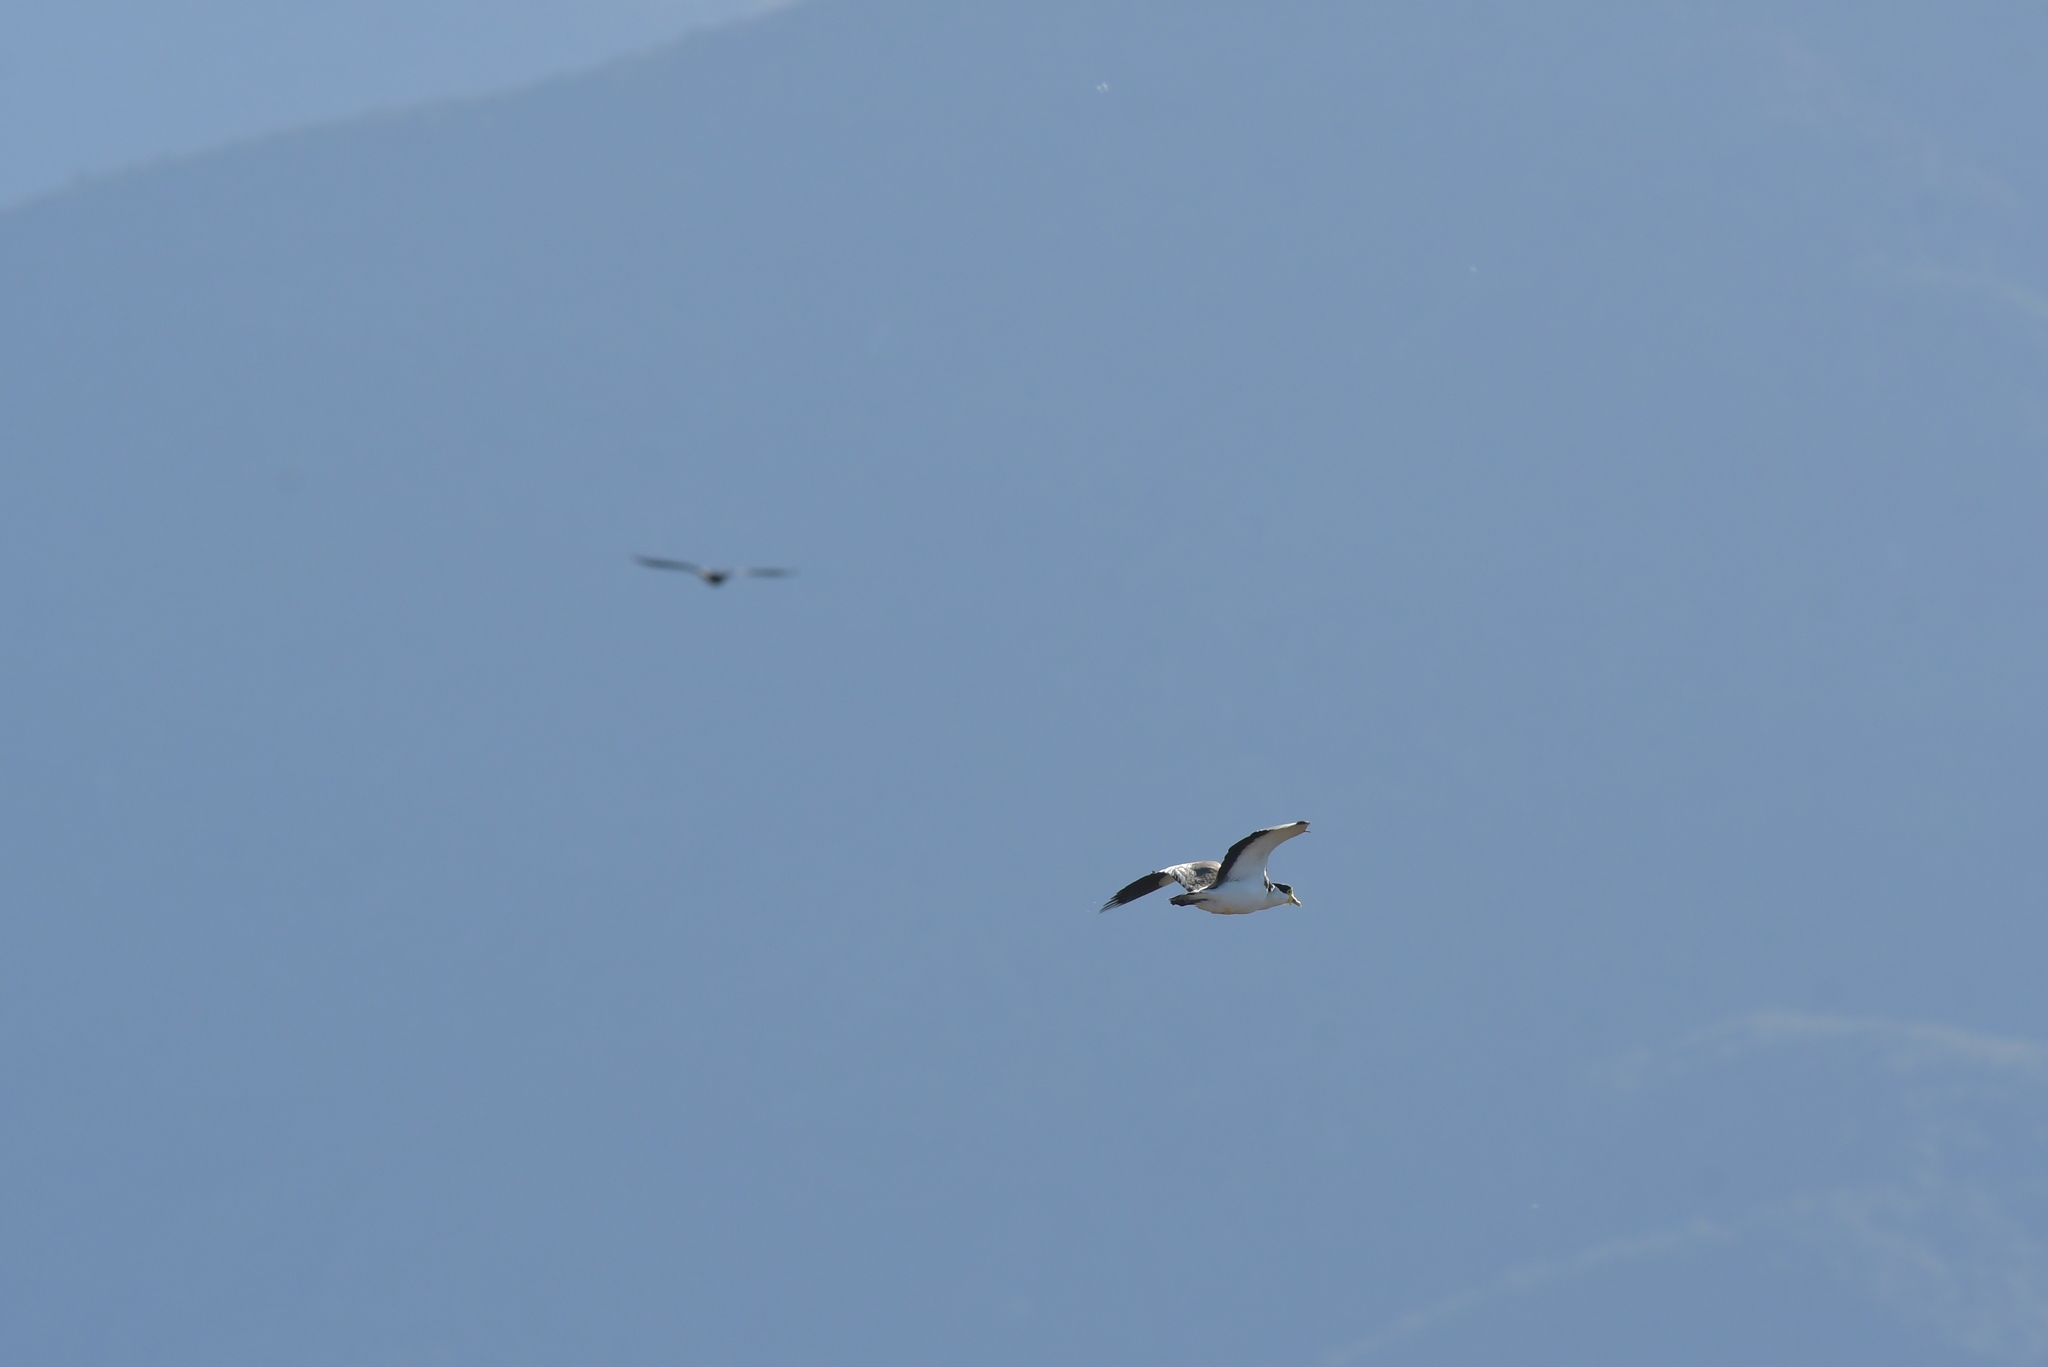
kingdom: Animalia
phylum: Chordata
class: Aves
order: Charadriiformes
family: Charadriidae
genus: Vanellus
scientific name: Vanellus miles
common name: Masked lapwing
